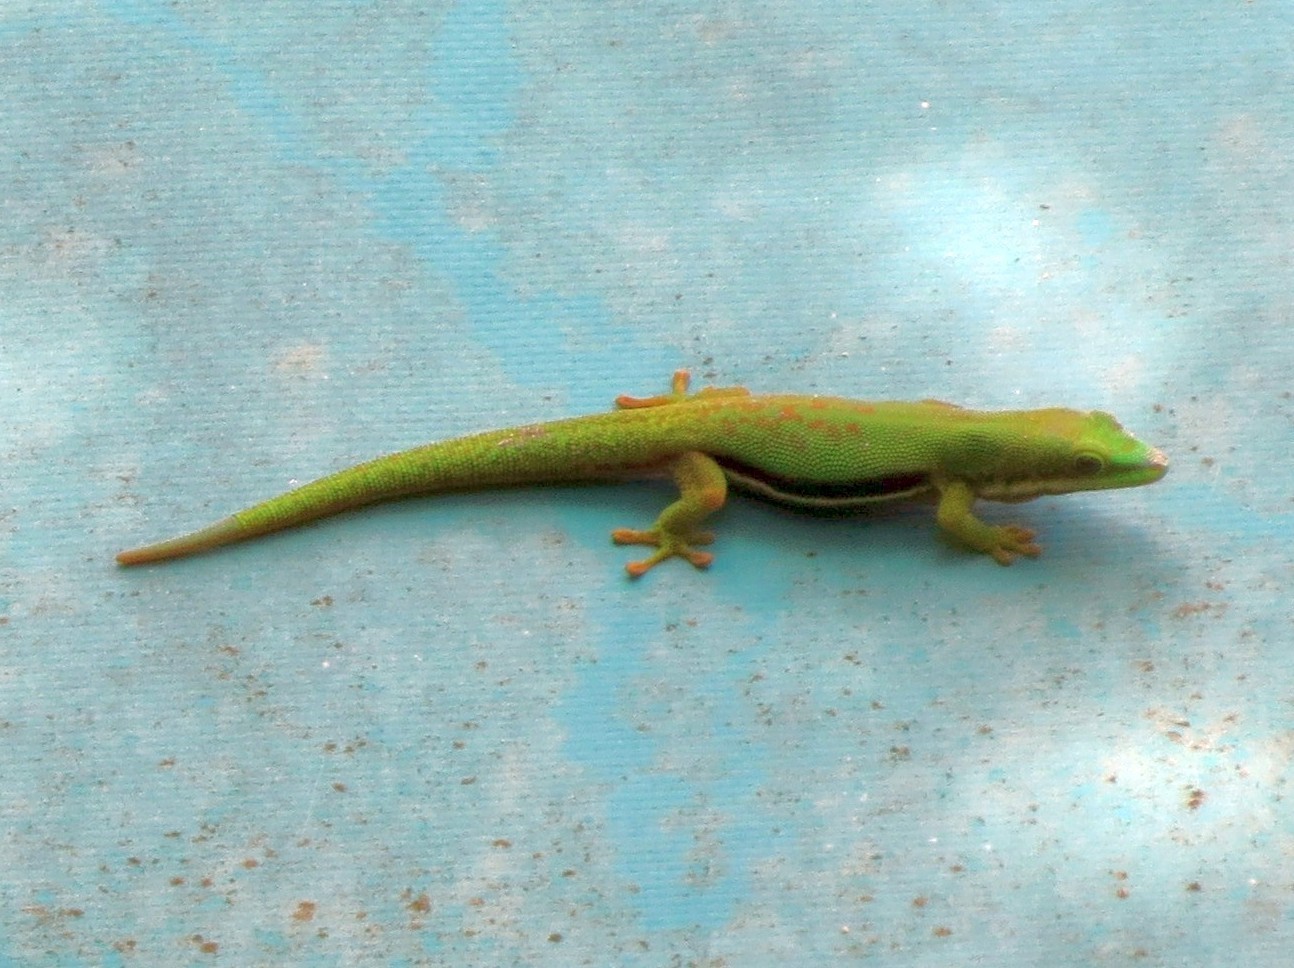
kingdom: Animalia
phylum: Chordata
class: Squamata
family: Gekkonidae
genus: Phelsuma
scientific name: Phelsuma dorsivittata
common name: Striped day gecko
